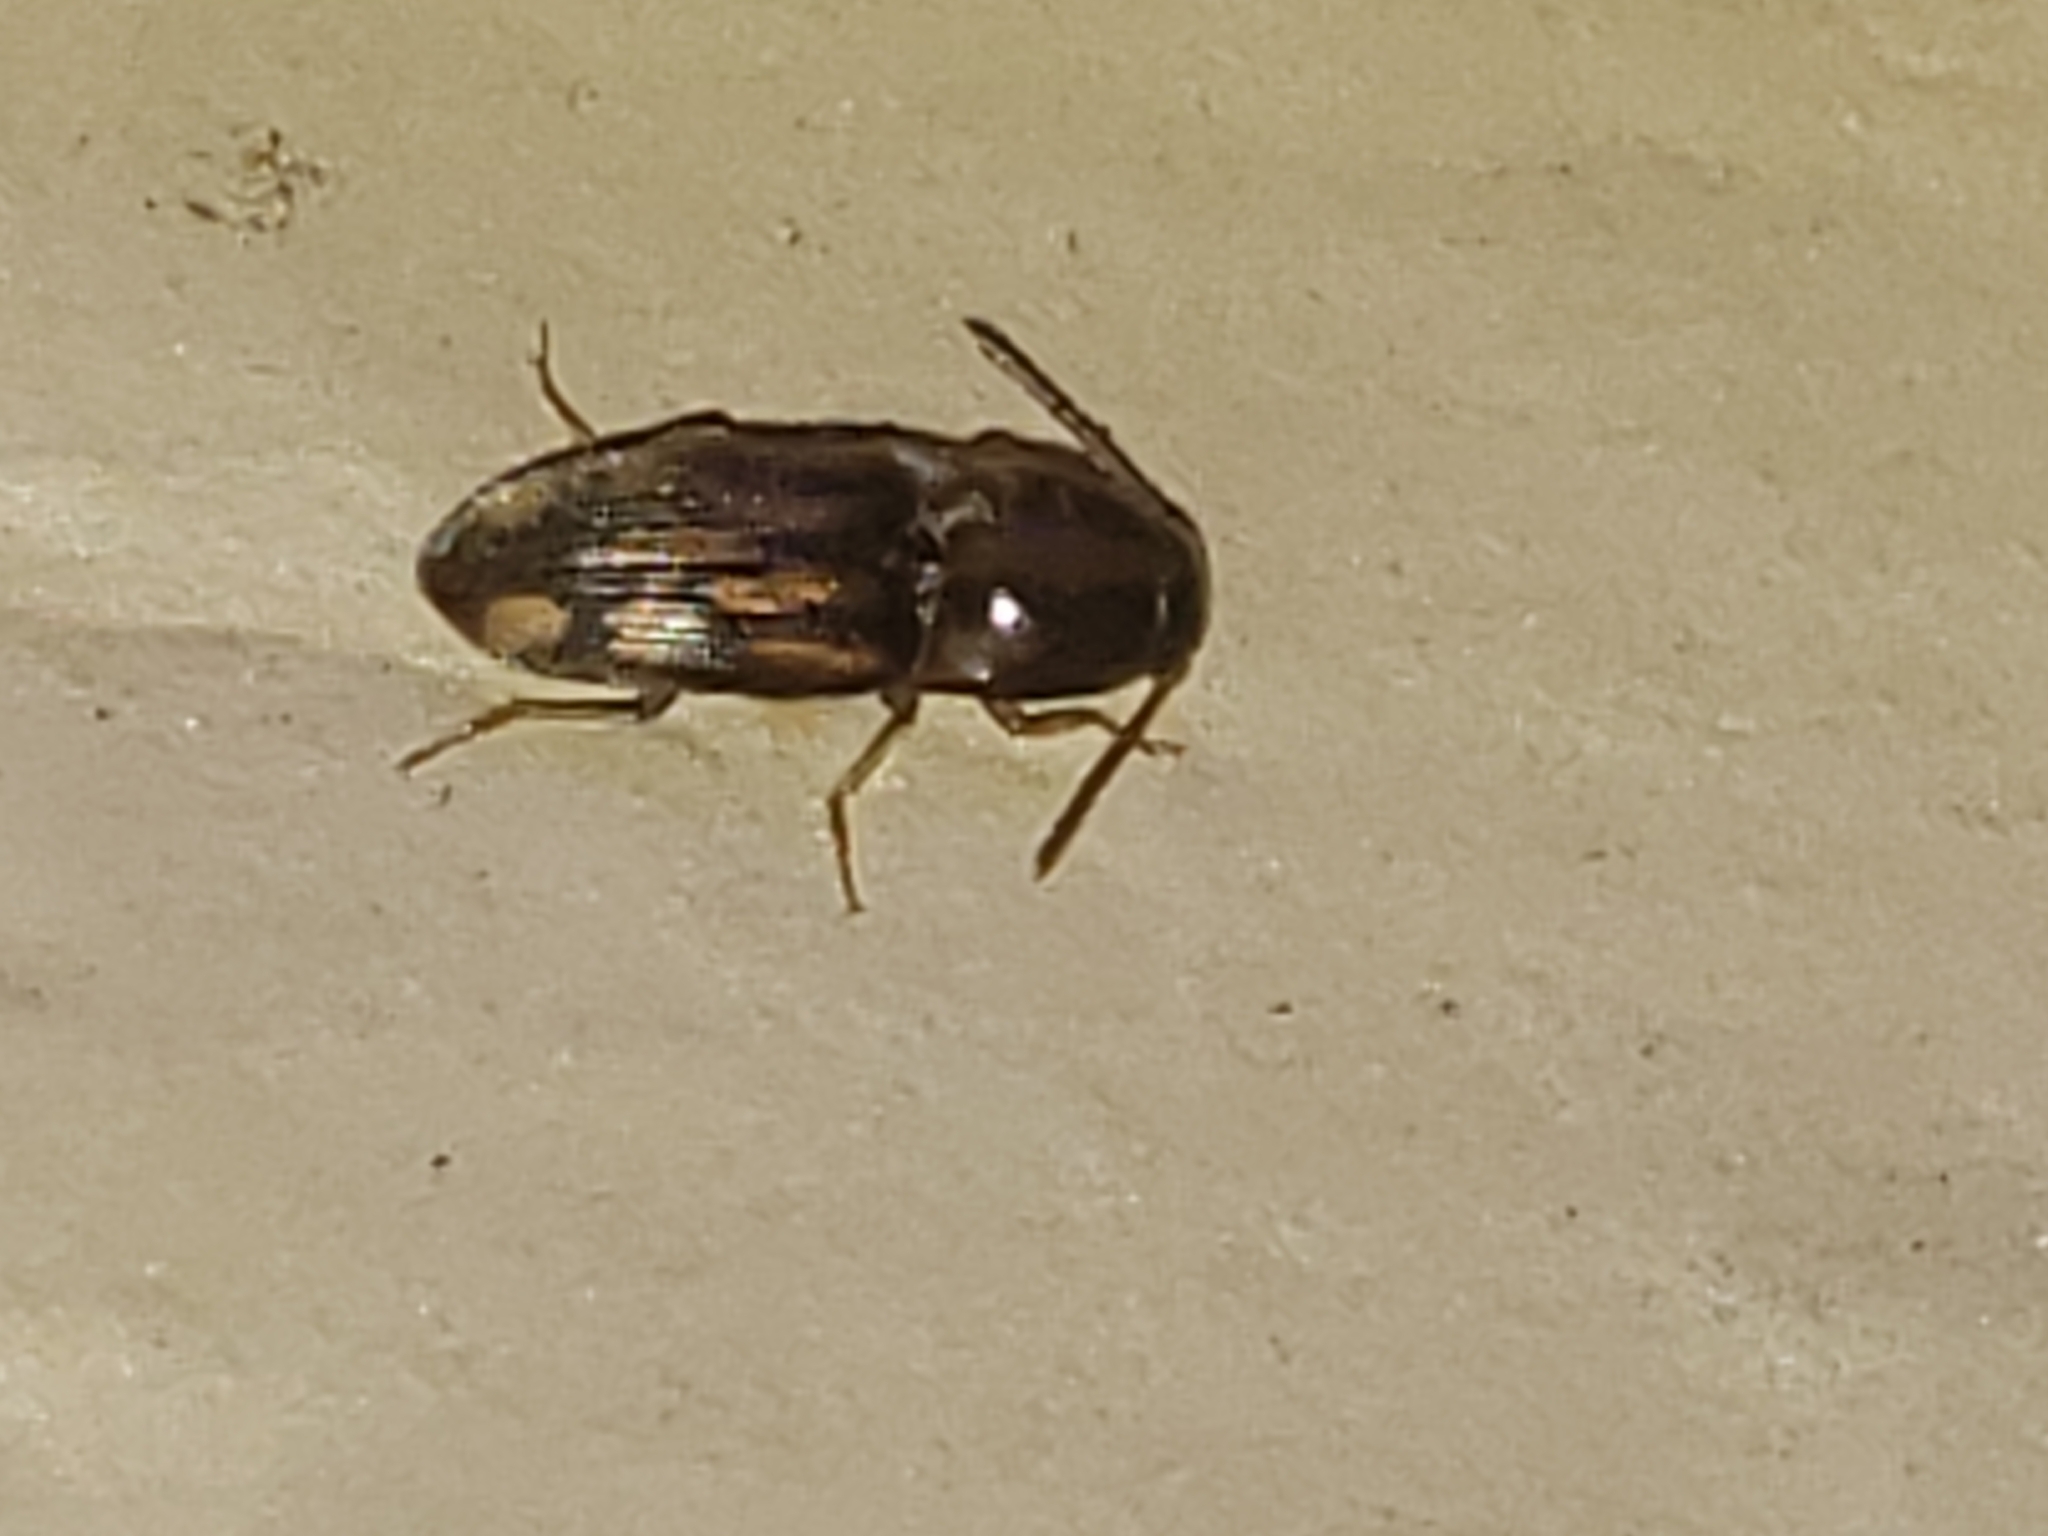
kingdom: Animalia
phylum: Arthropoda
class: Insecta
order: Coleoptera
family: Elateridae
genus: Monocrepidius
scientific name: Monocrepidius bellus
